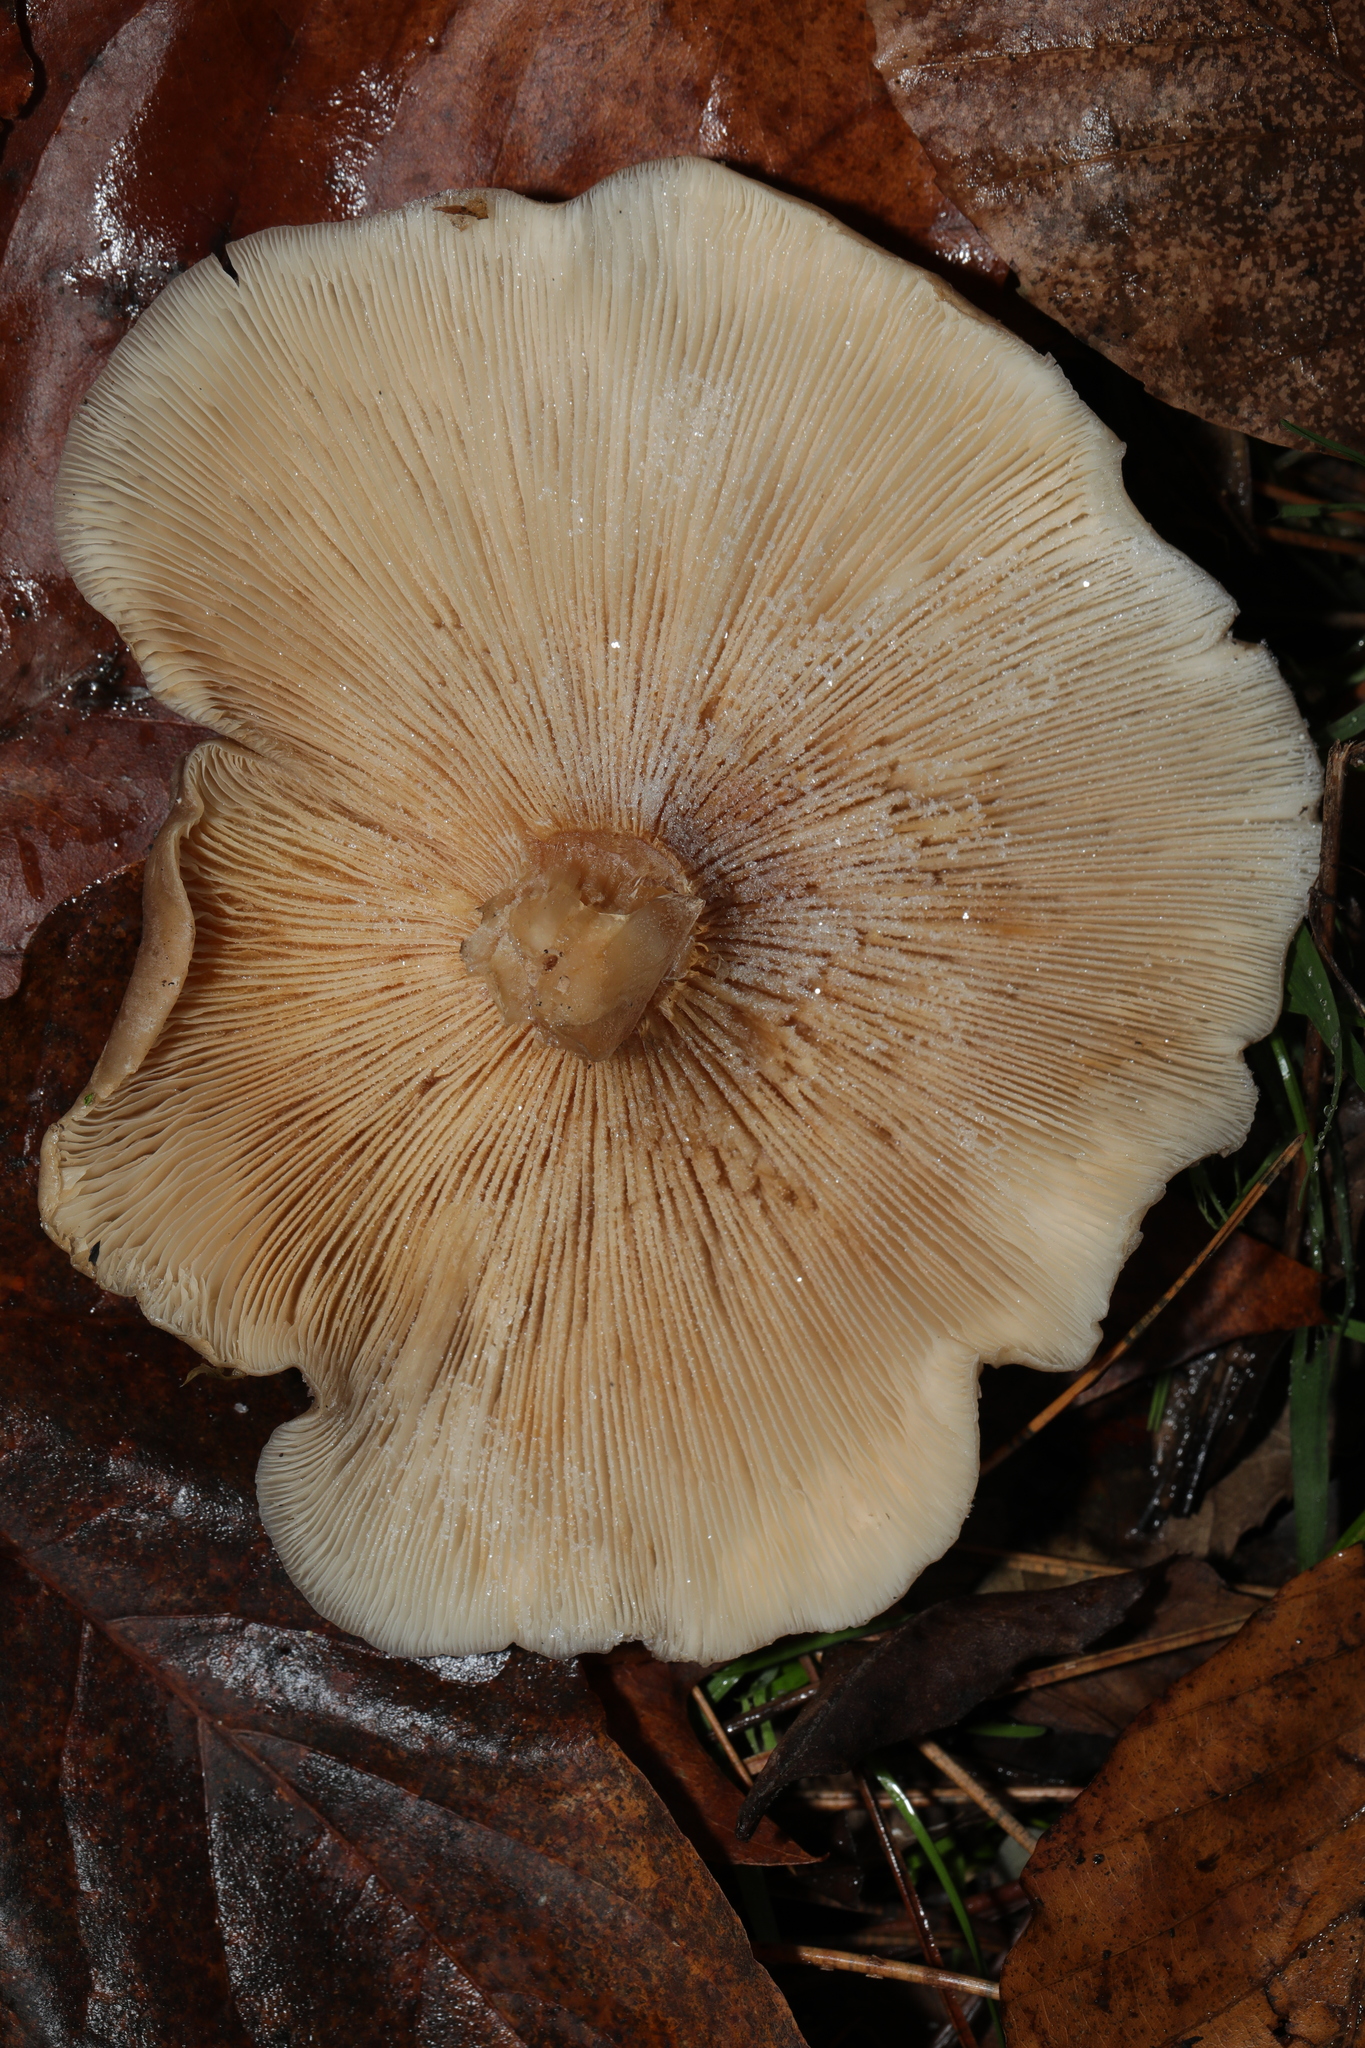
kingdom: Fungi
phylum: Basidiomycota
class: Agaricomycetes
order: Agaricales
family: Tricholomataceae
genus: Clitocybe
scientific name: Clitocybe nebularis
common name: Clouded agaric
